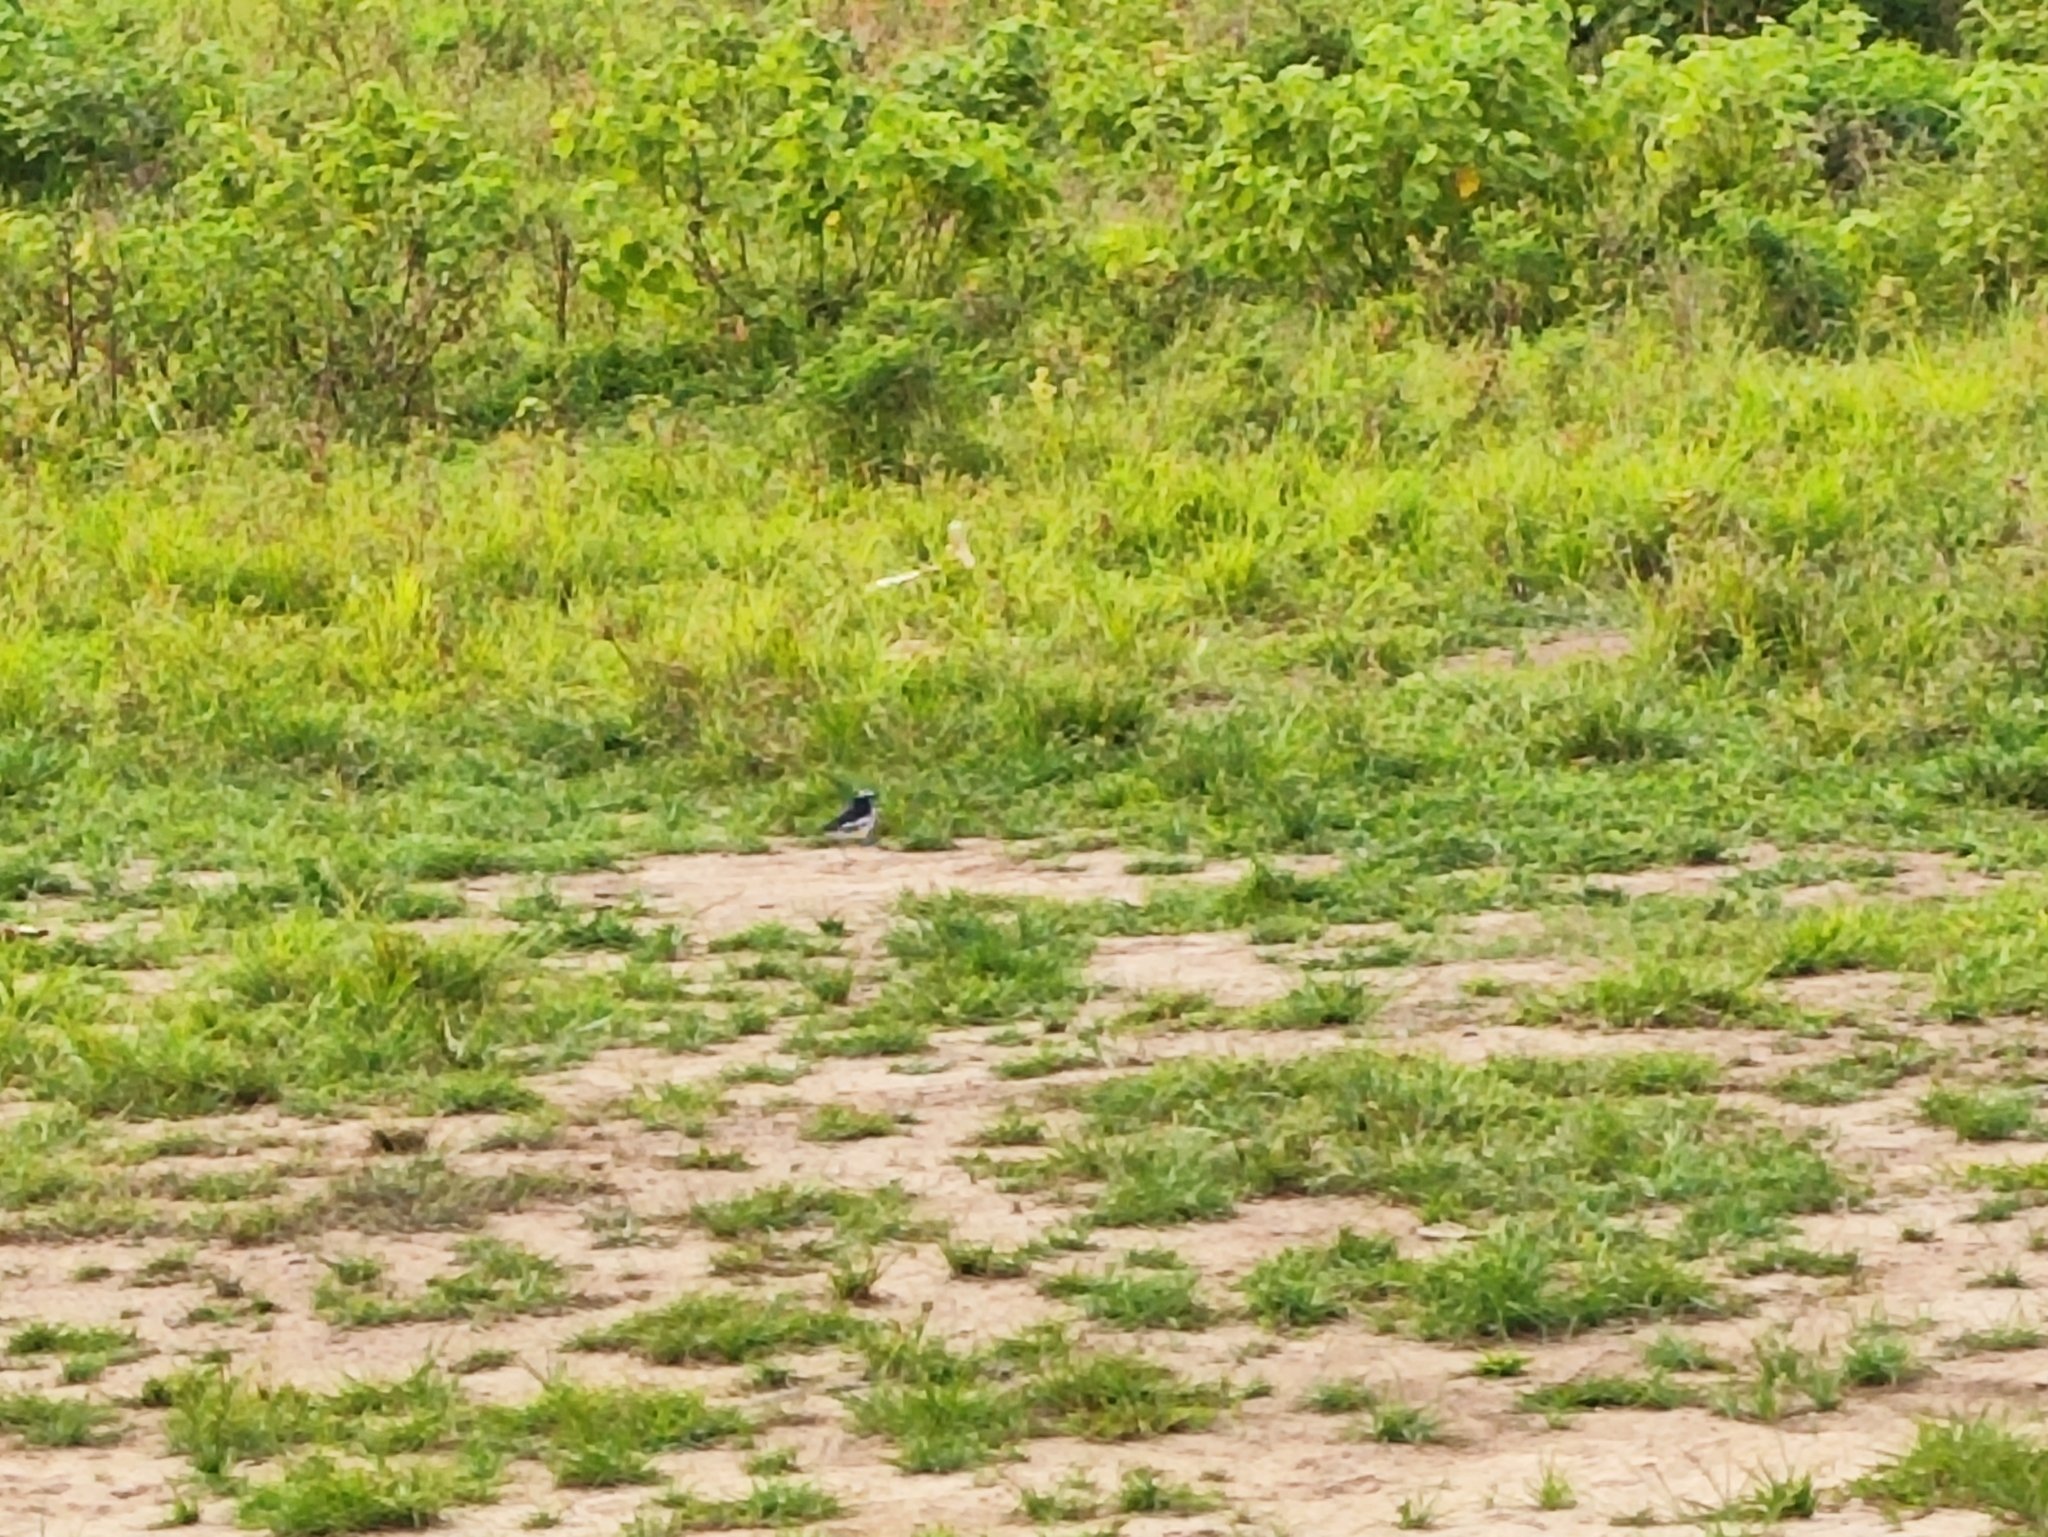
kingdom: Animalia
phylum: Chordata
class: Aves
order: Passeriformes
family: Motacillidae
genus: Motacilla
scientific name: Motacilla maderaspatensis
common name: White-browed wagtail
